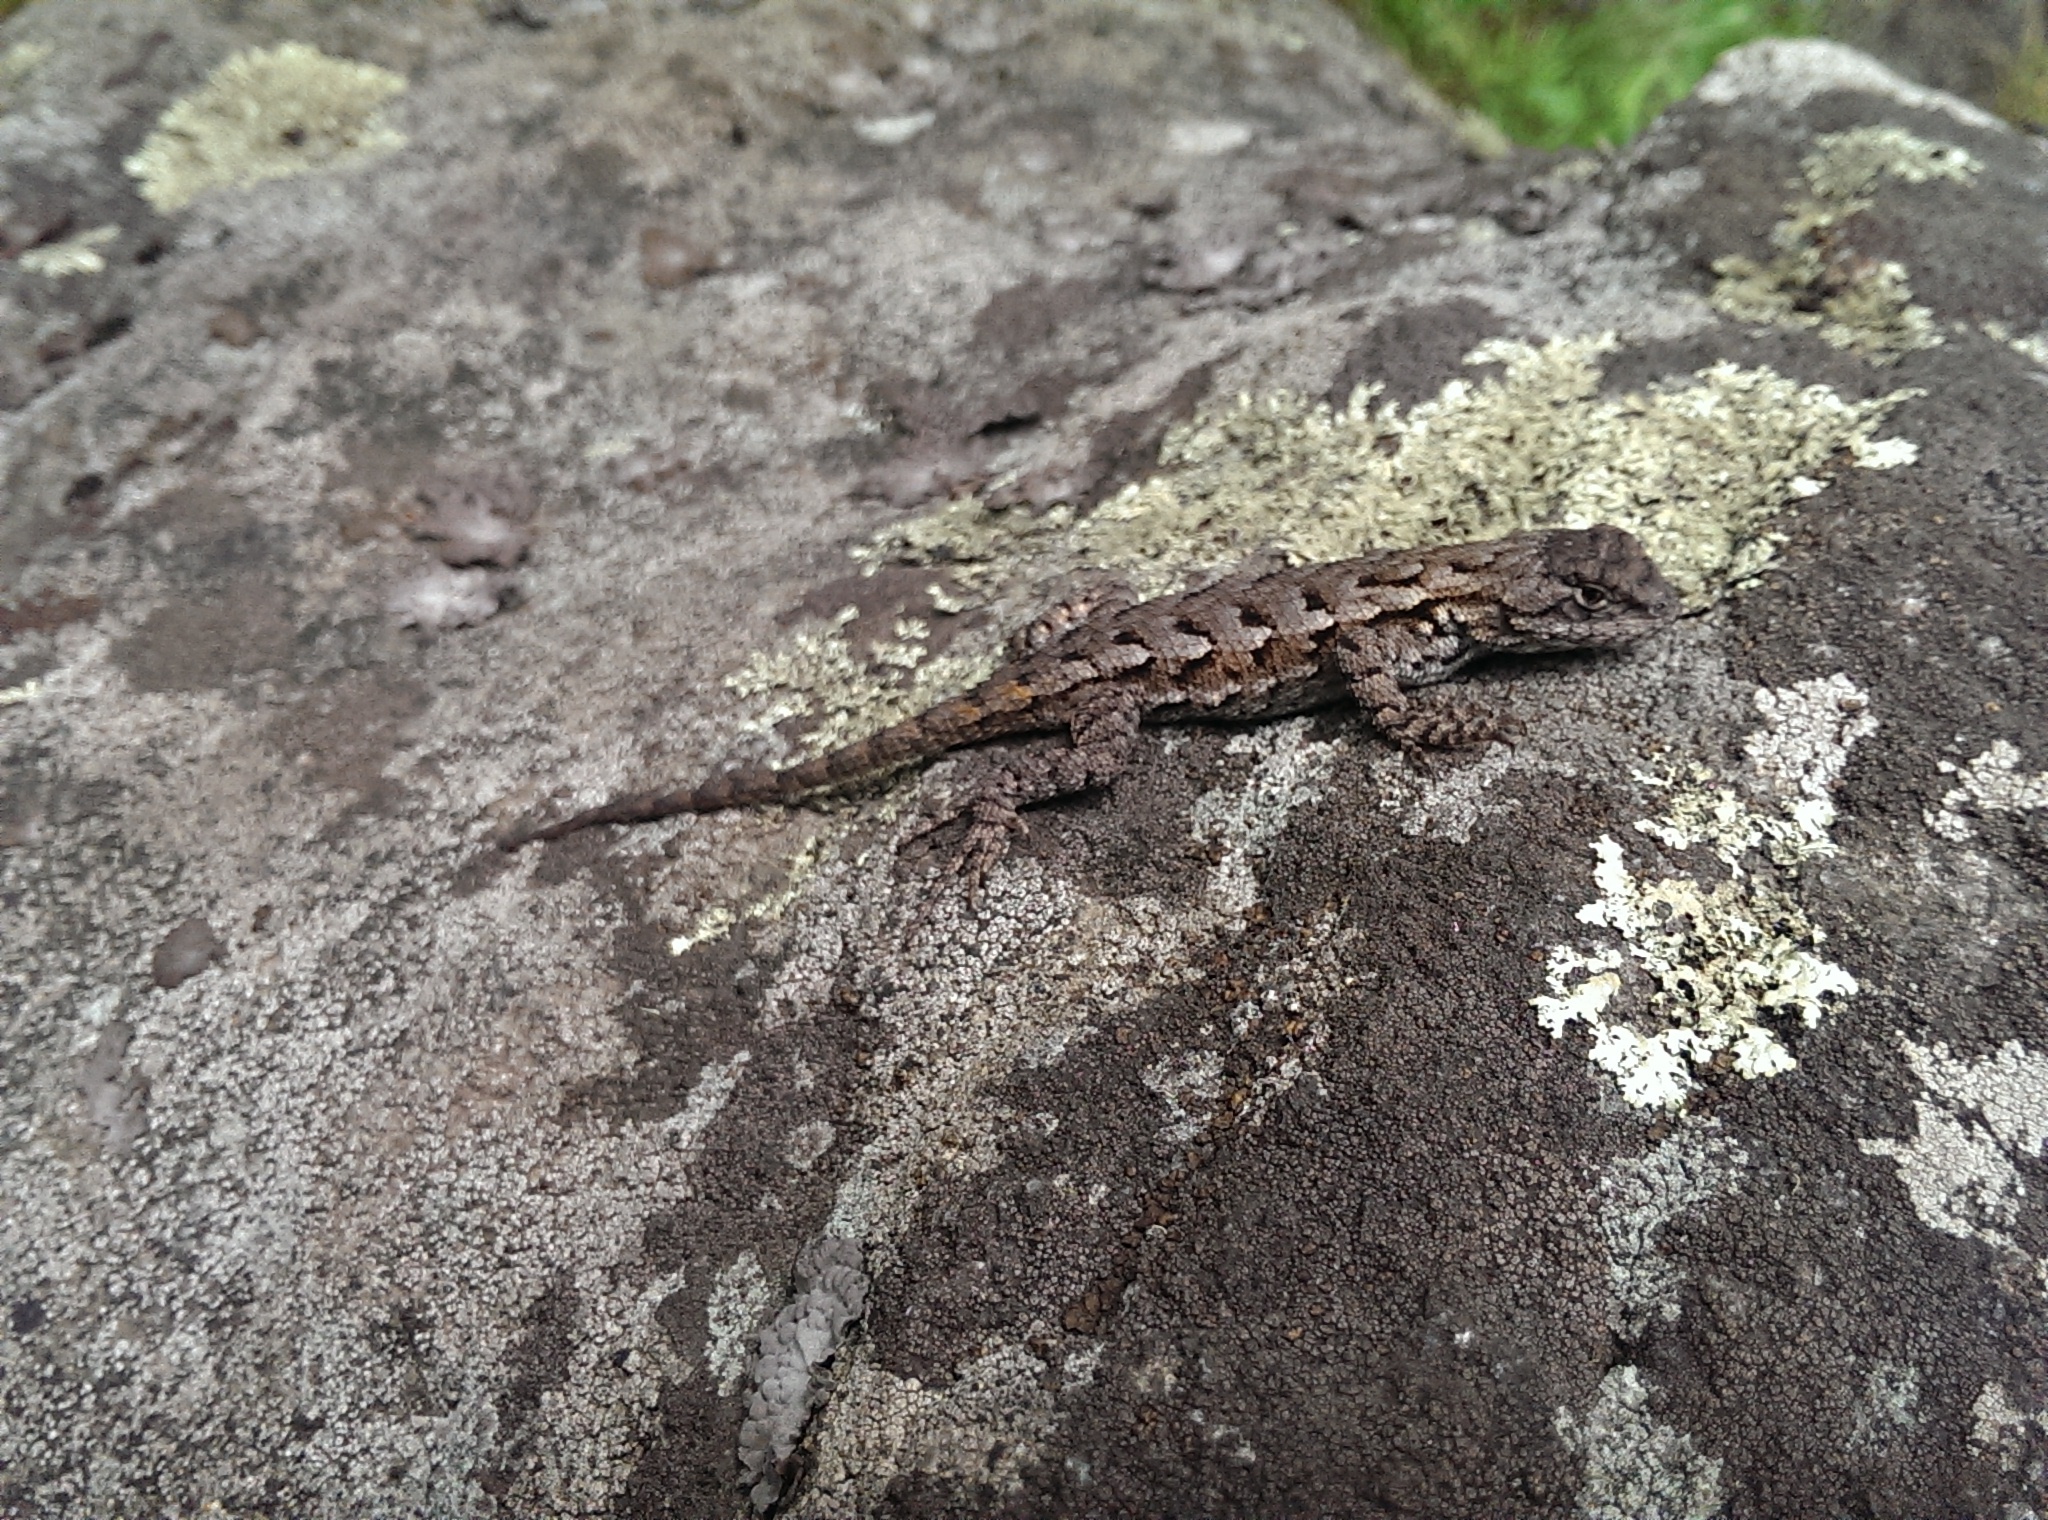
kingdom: Animalia
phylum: Chordata
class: Squamata
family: Phrynosomatidae
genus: Sceloporus
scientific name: Sceloporus undulatus
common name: Eastern fence lizard
